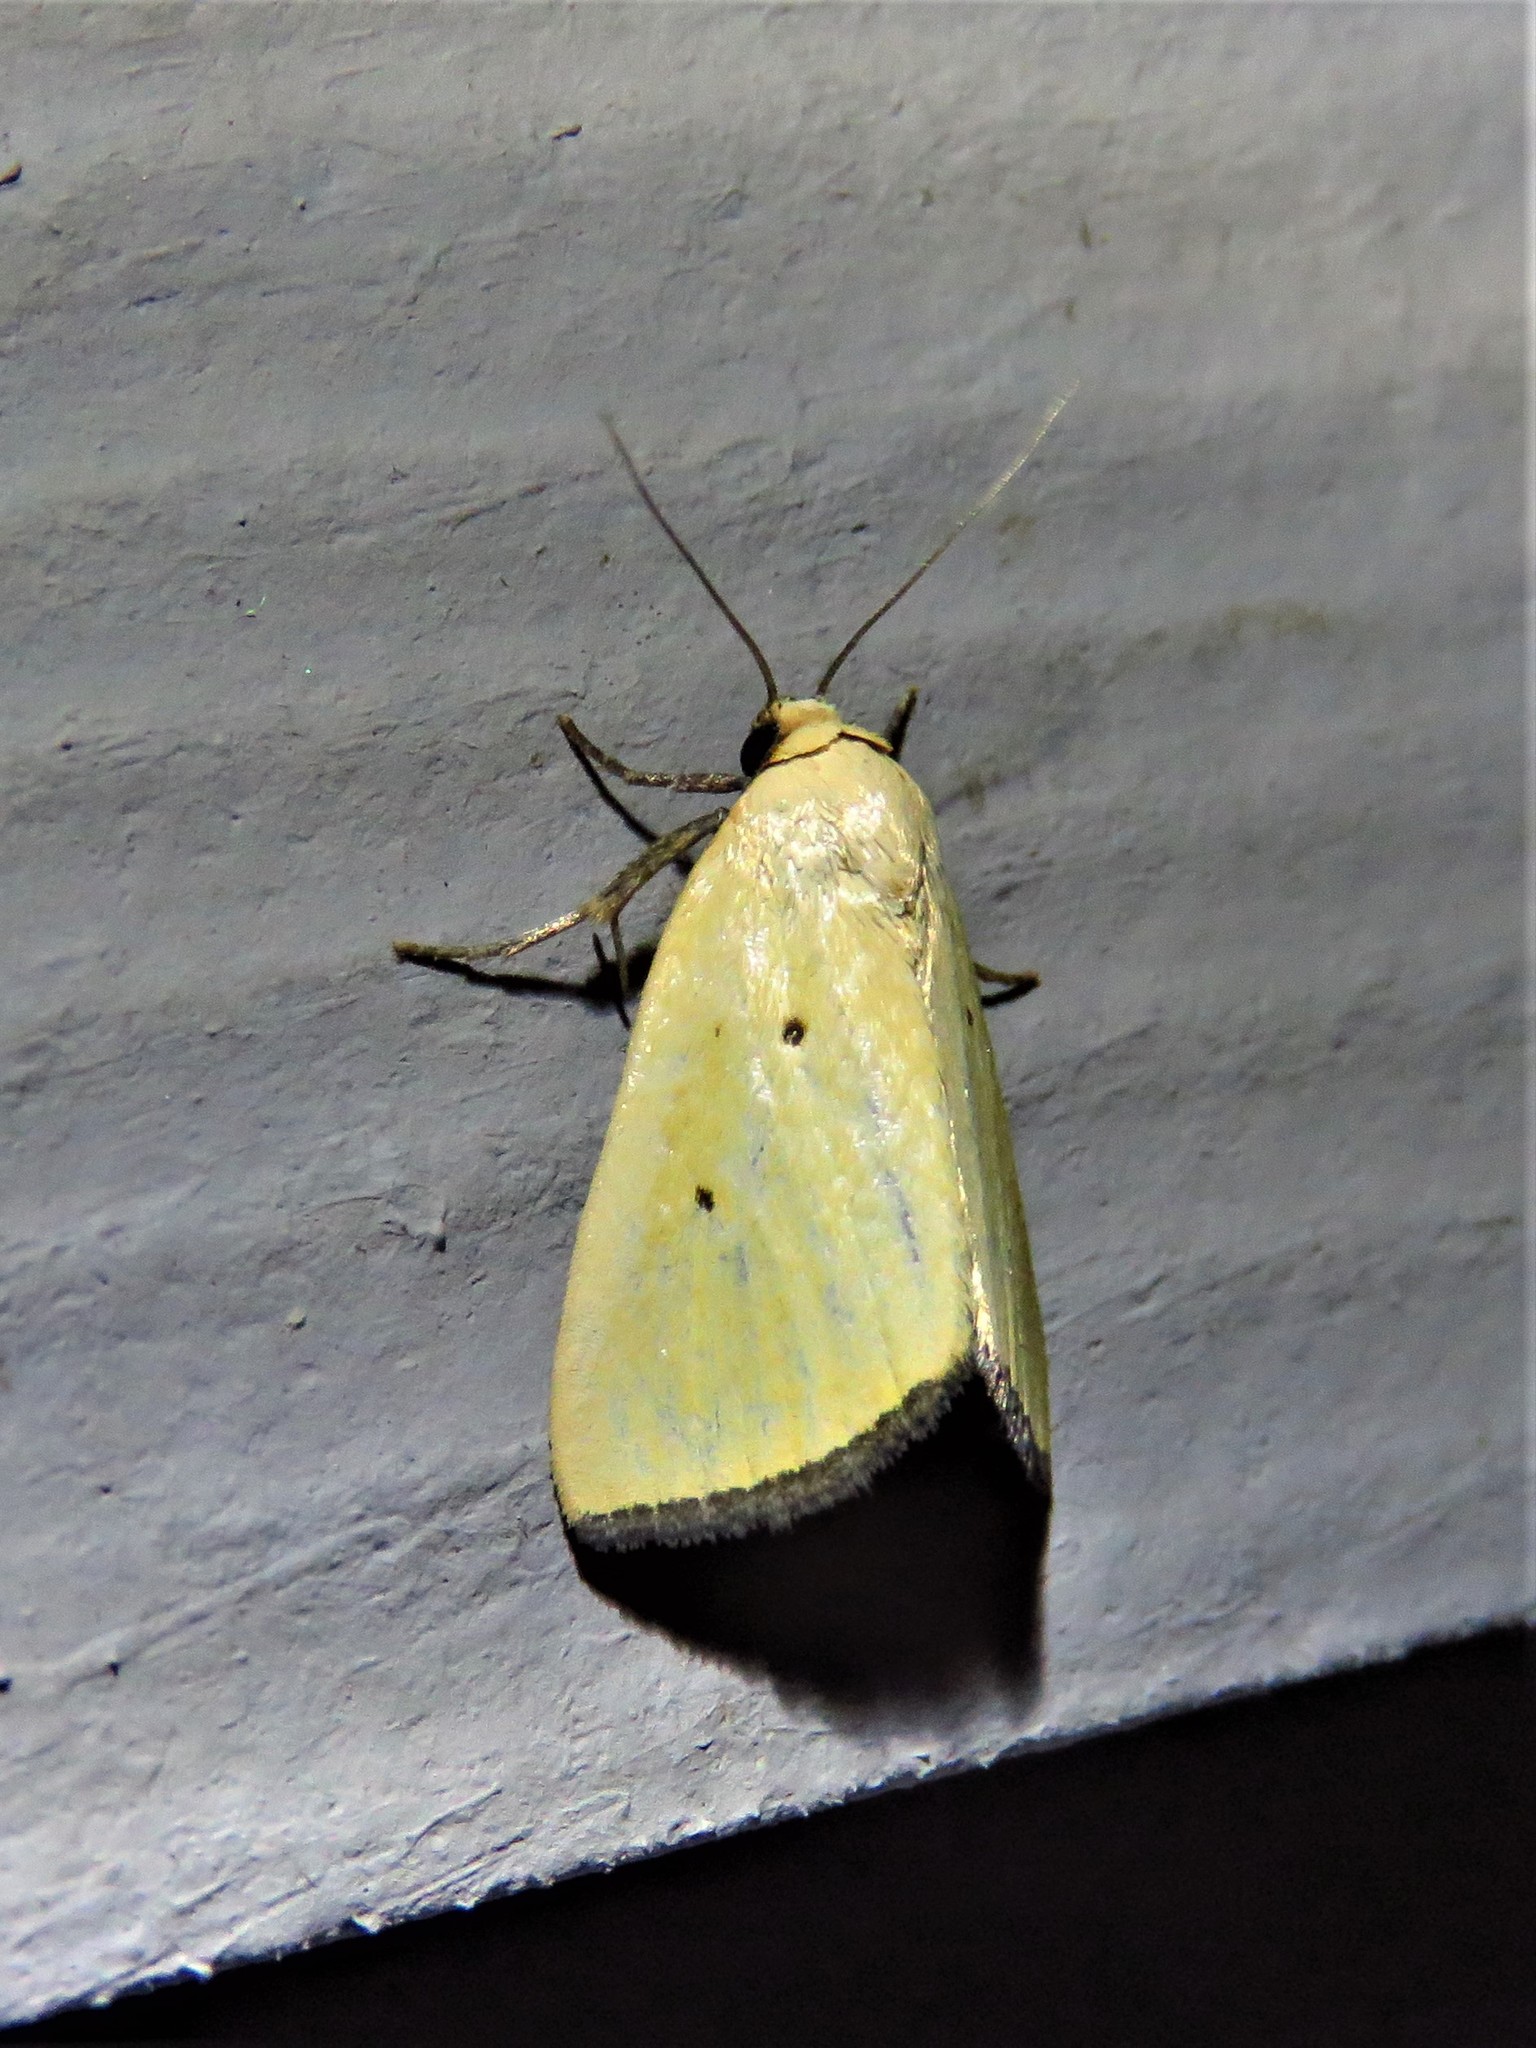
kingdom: Animalia
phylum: Arthropoda
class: Insecta
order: Lepidoptera
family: Noctuidae
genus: Marimatha
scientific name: Marimatha nigrofimbria
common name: Black-bordered lemon moth
